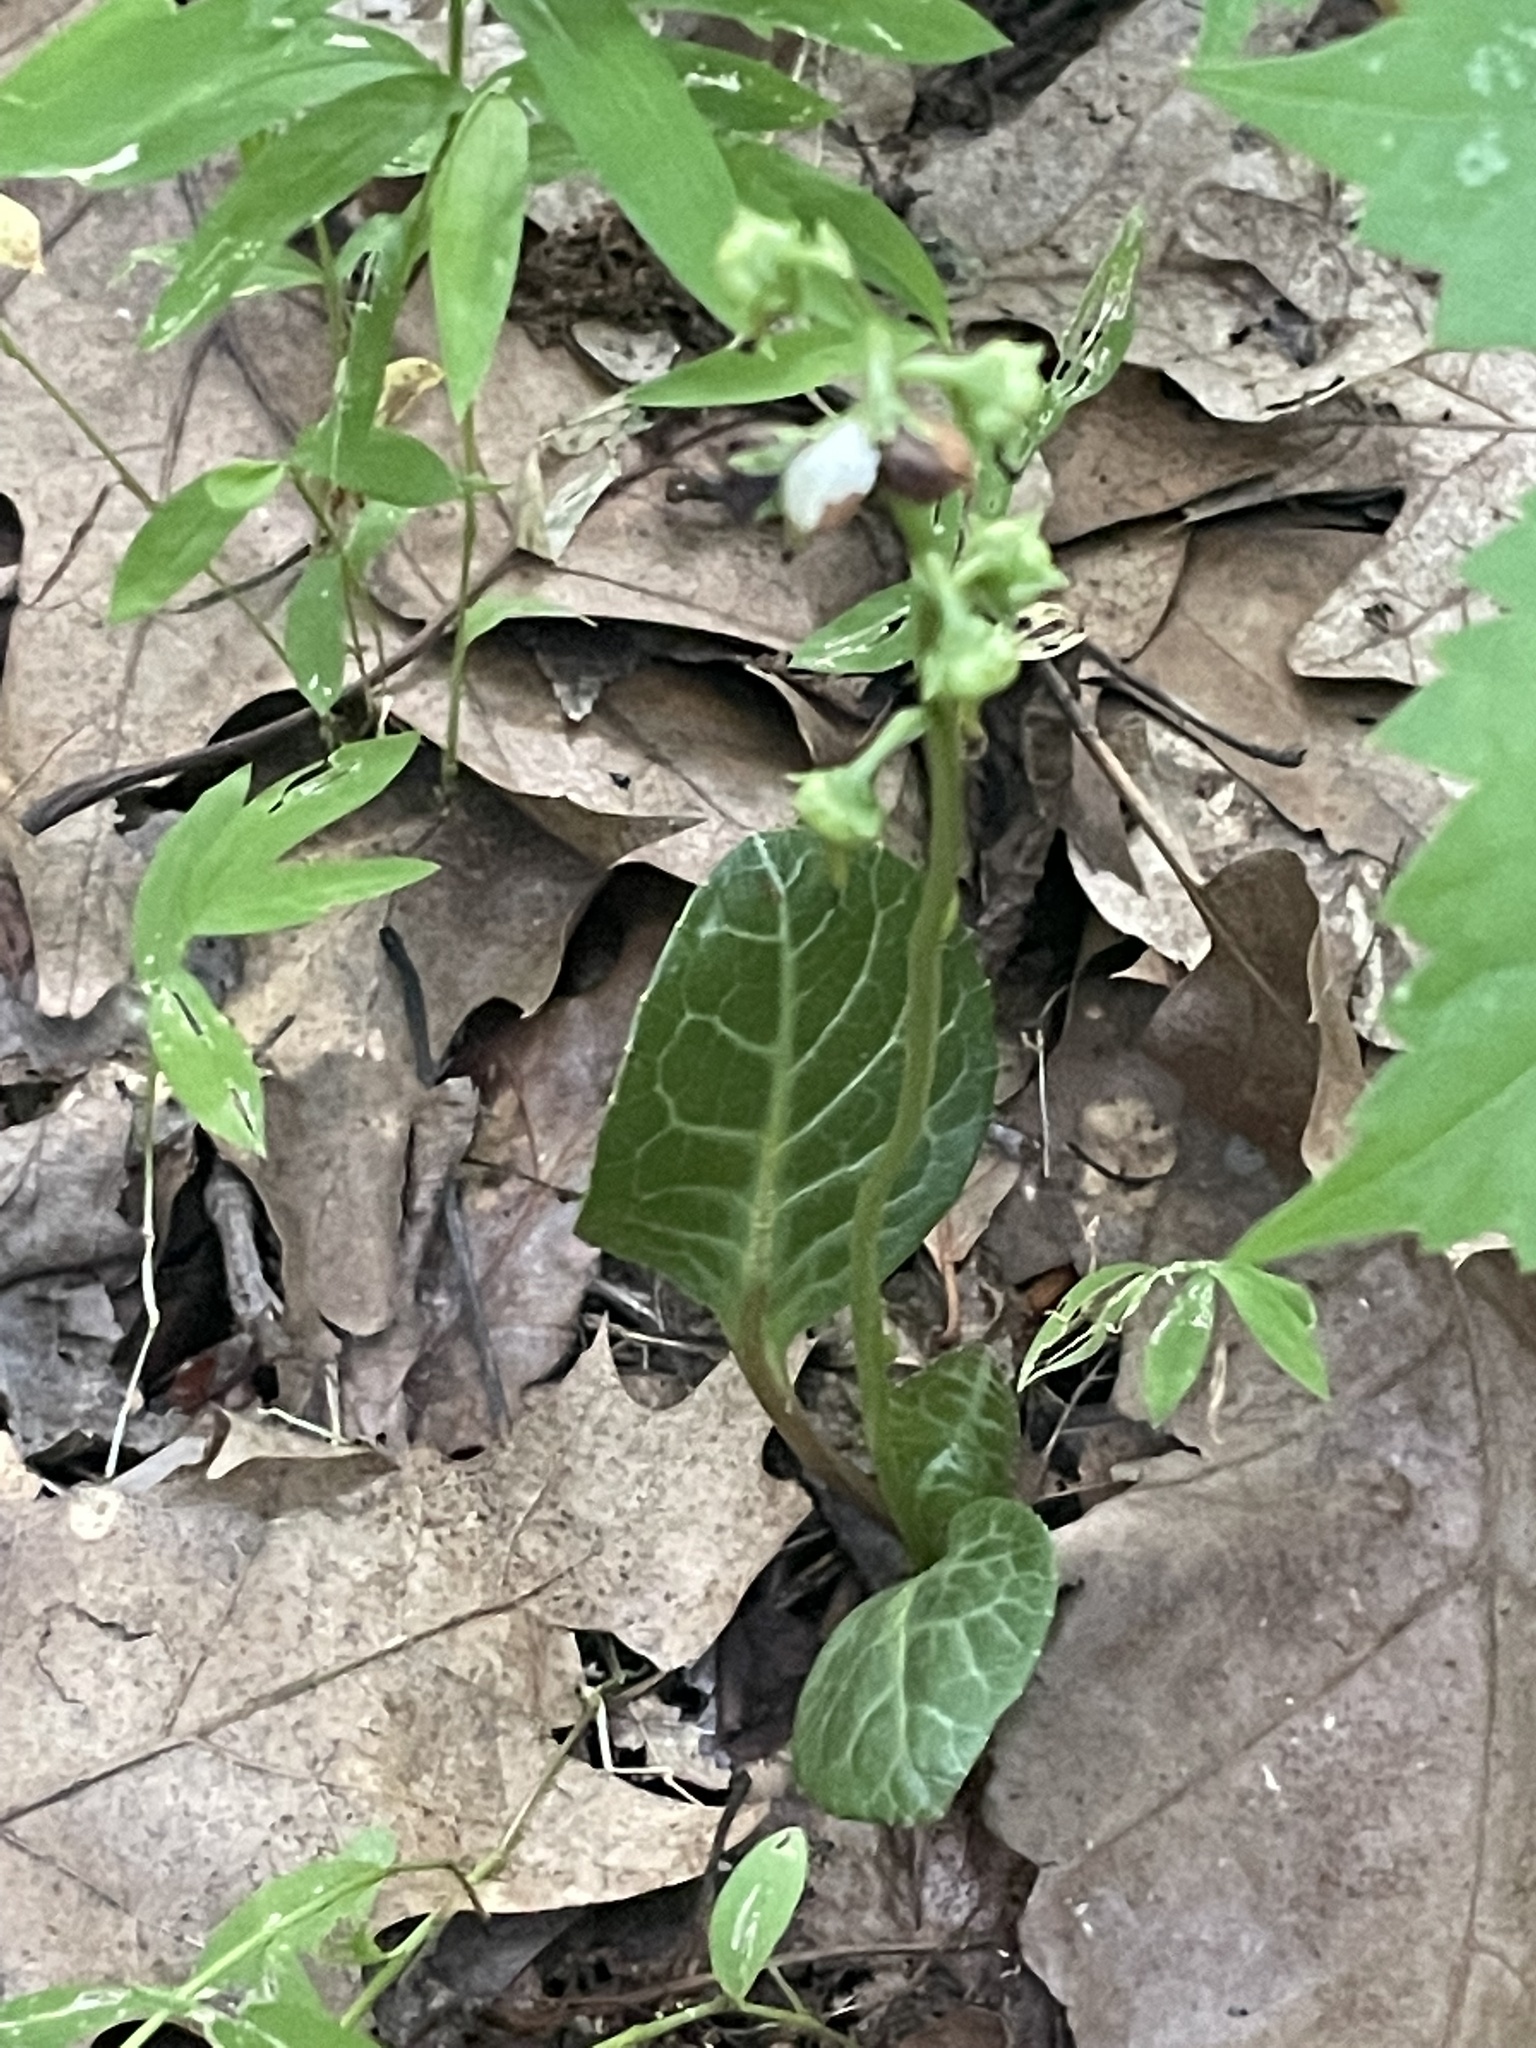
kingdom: Plantae
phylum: Tracheophyta
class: Magnoliopsida
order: Ericales
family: Ericaceae
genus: Pyrola
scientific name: Pyrola americana
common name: American wintergreen
